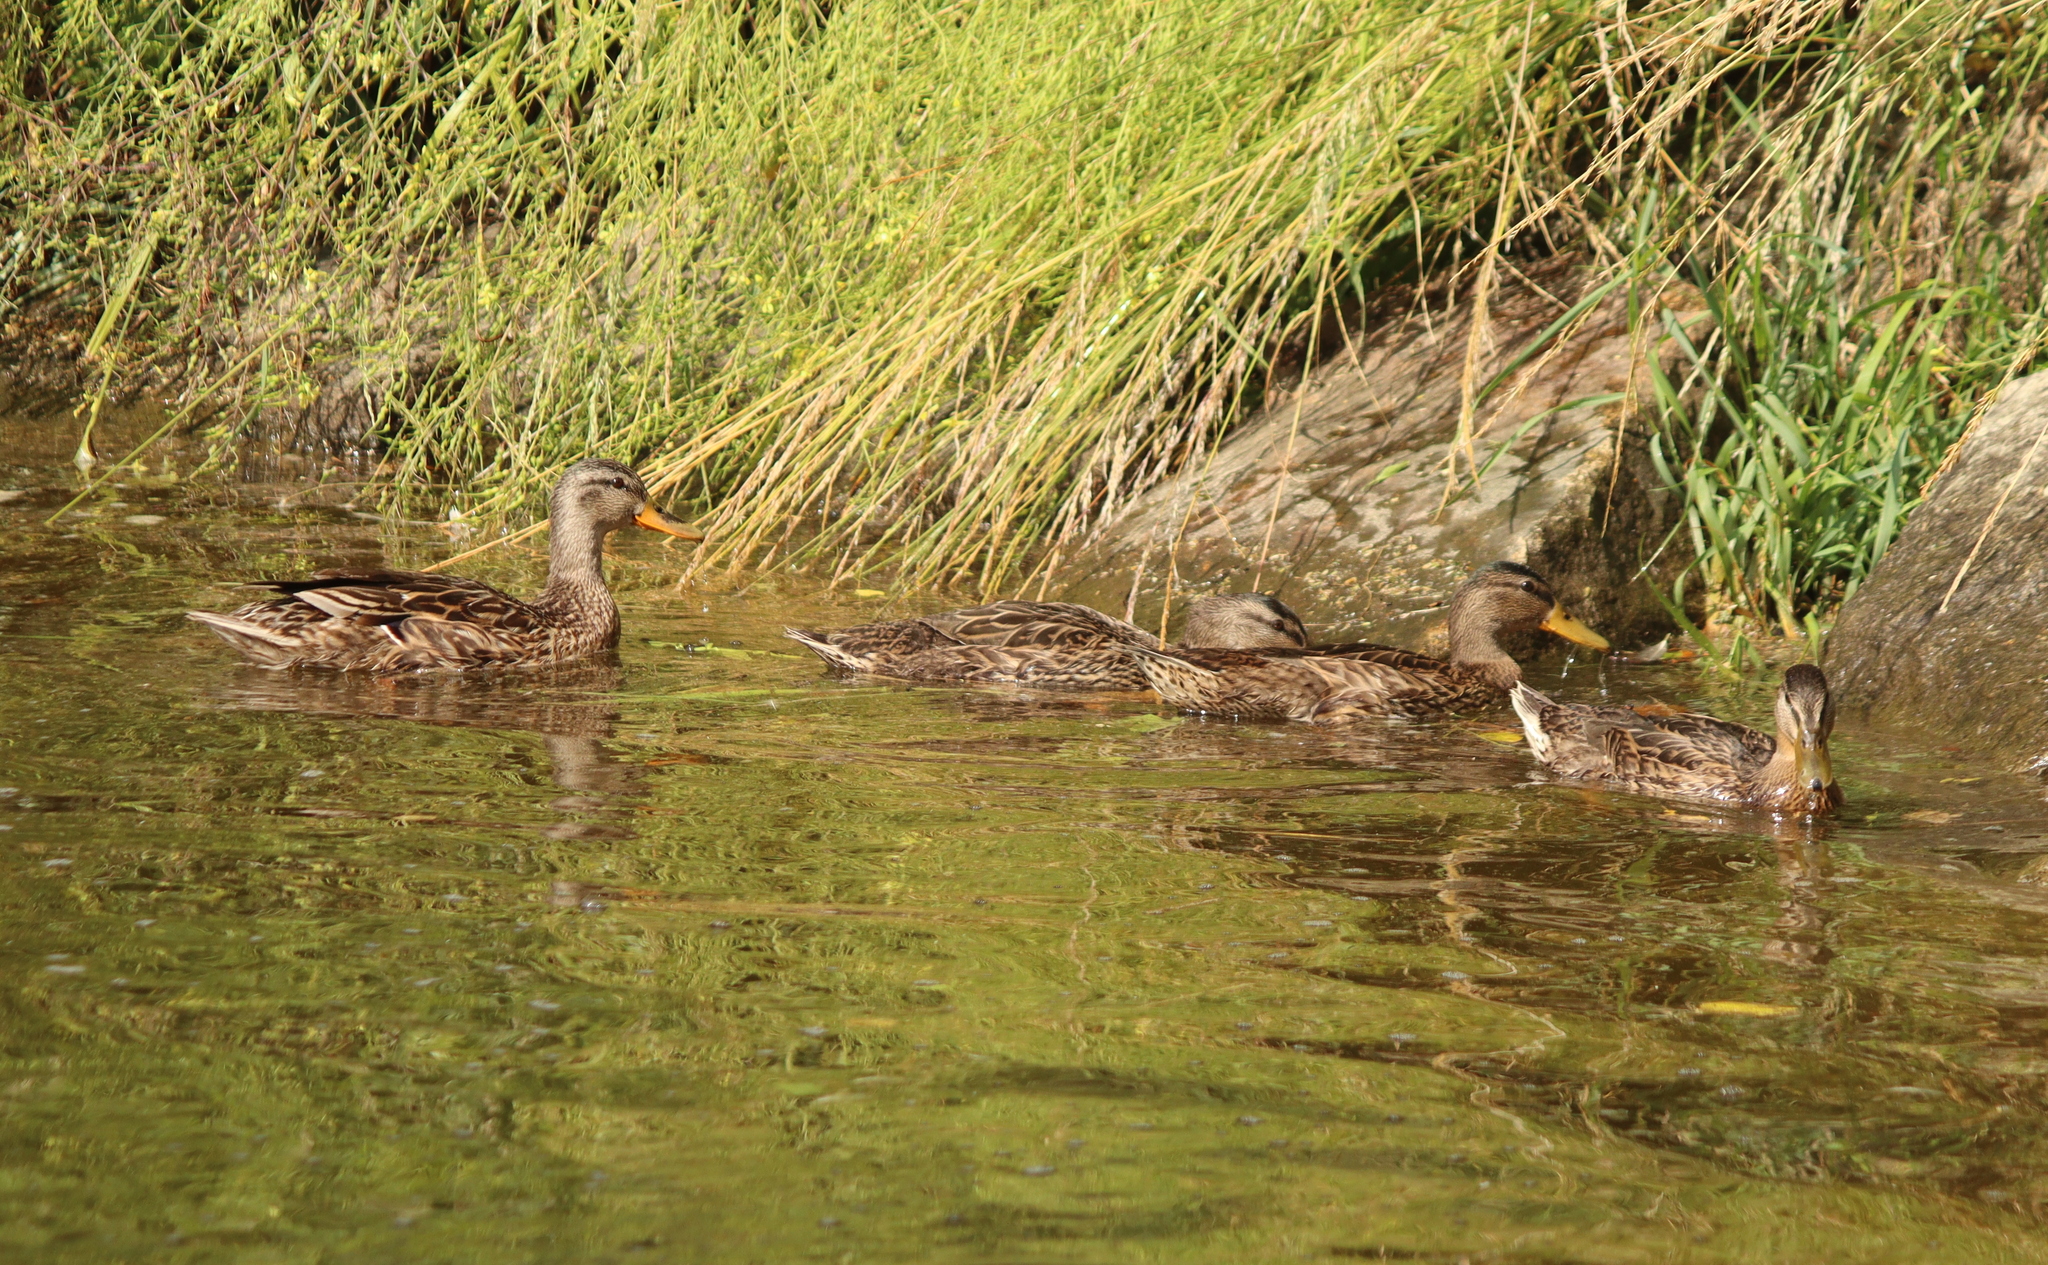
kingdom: Animalia
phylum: Chordata
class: Aves
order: Anseriformes
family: Anatidae
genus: Anas
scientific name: Anas platyrhynchos
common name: Mallard
